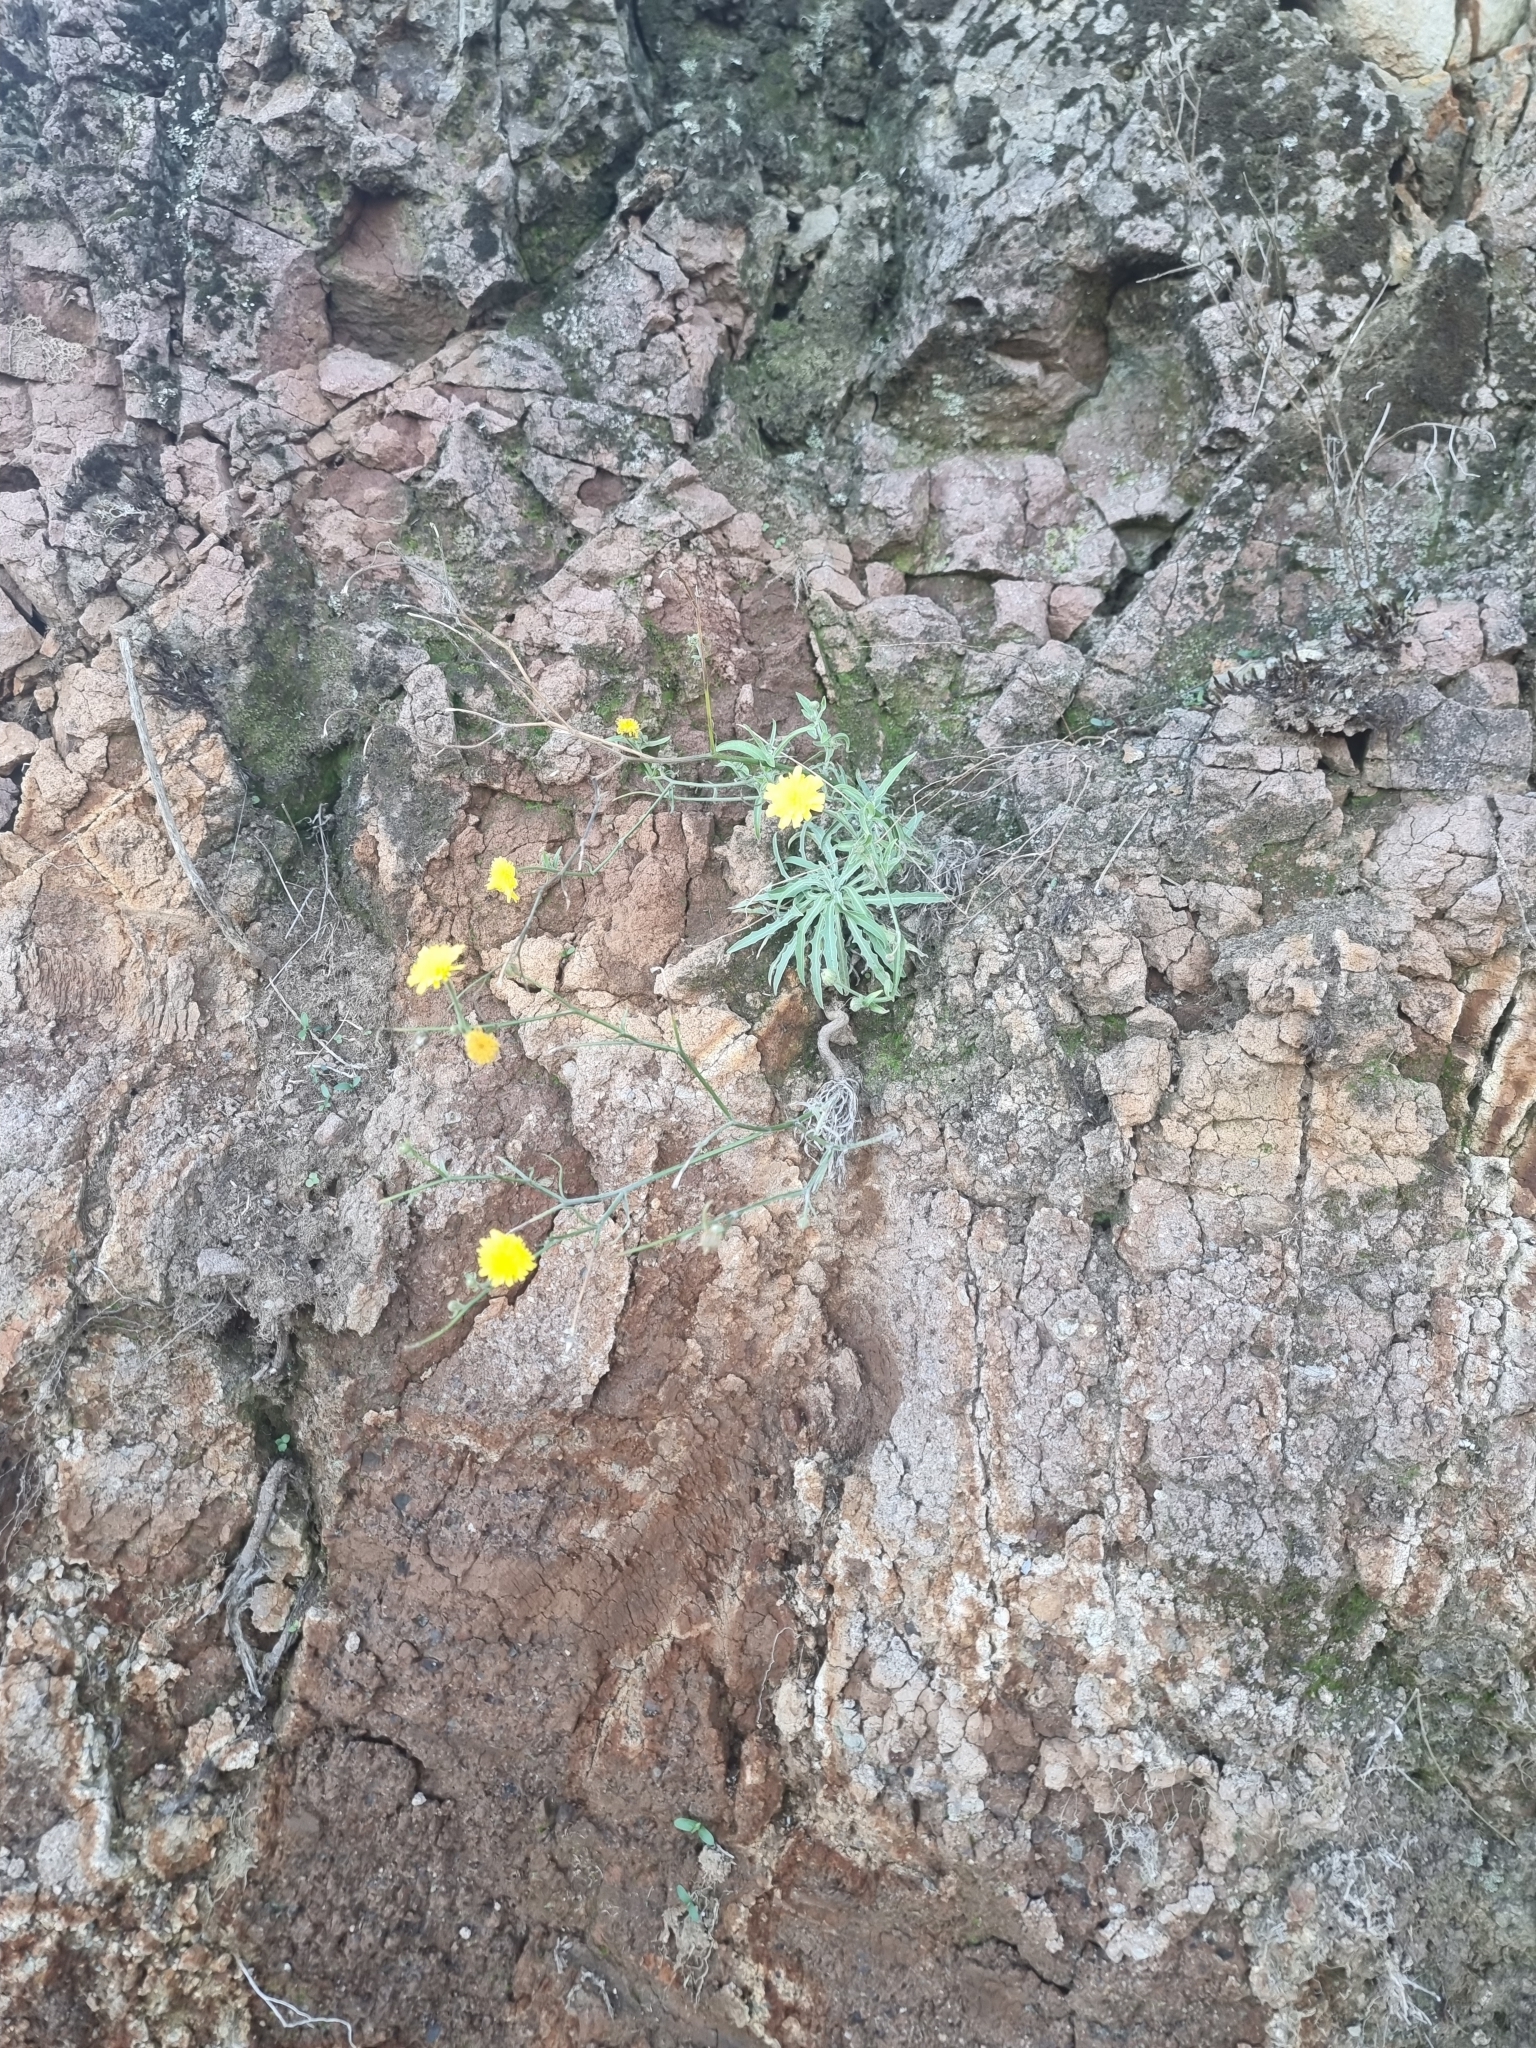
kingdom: Plantae
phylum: Tracheophyta
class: Magnoliopsida
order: Asterales
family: Asteraceae
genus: Andryala
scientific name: Andryala glandulosa
